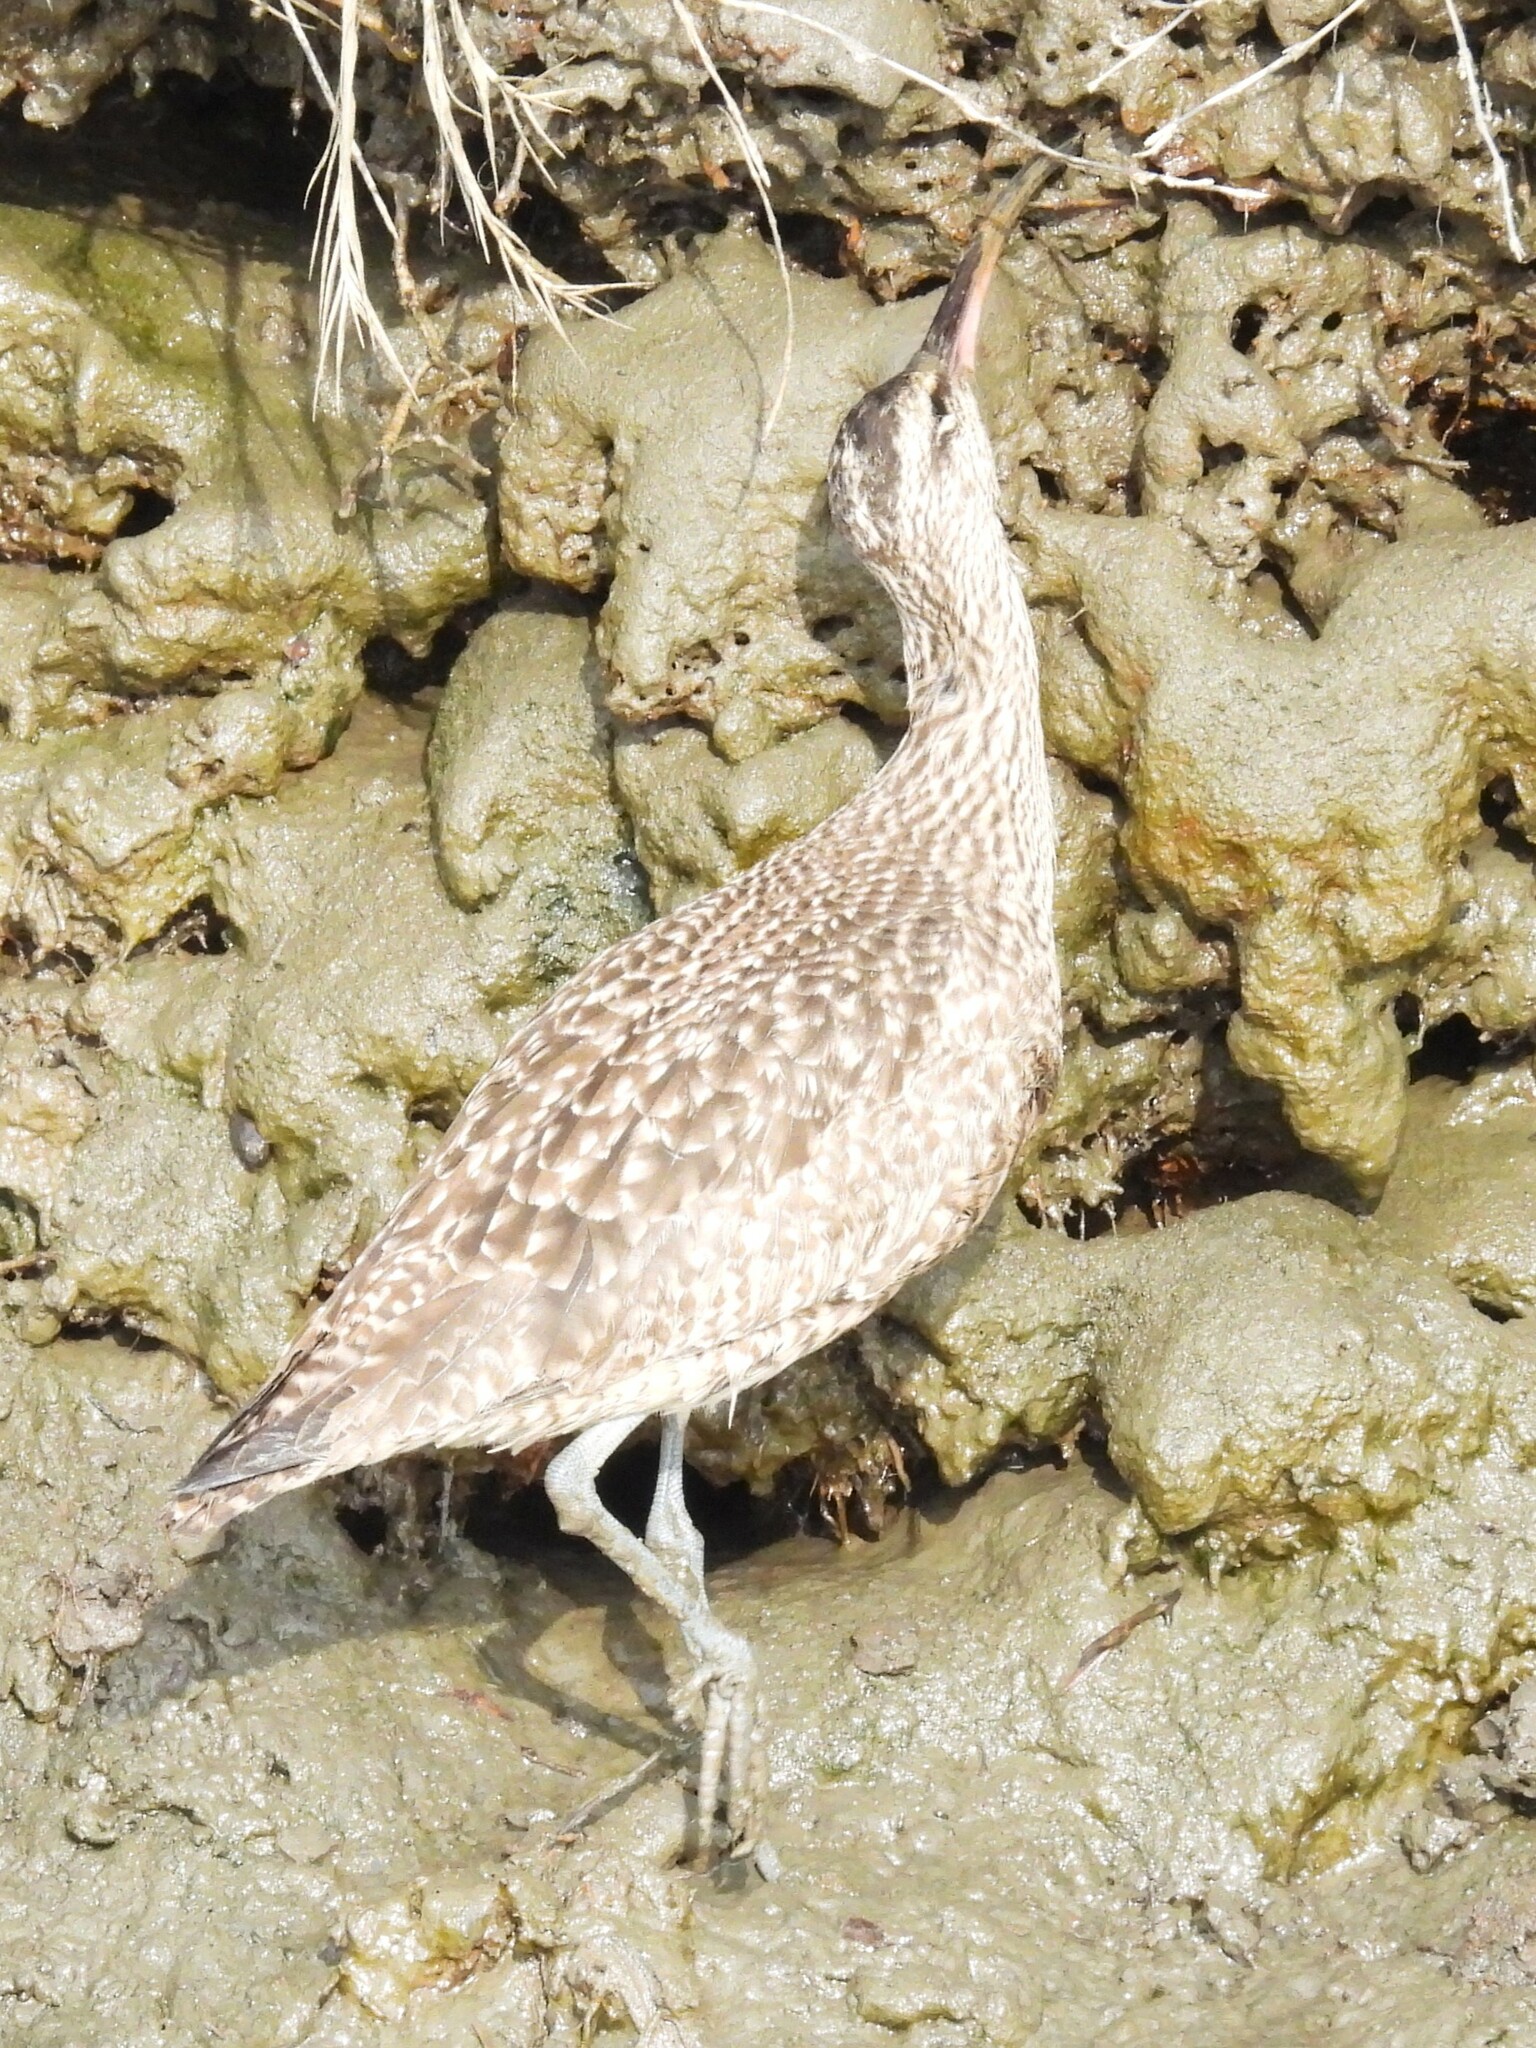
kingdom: Animalia
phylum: Chordata
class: Aves
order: Charadriiformes
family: Scolopacidae
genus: Numenius
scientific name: Numenius phaeopus
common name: Whimbrel
